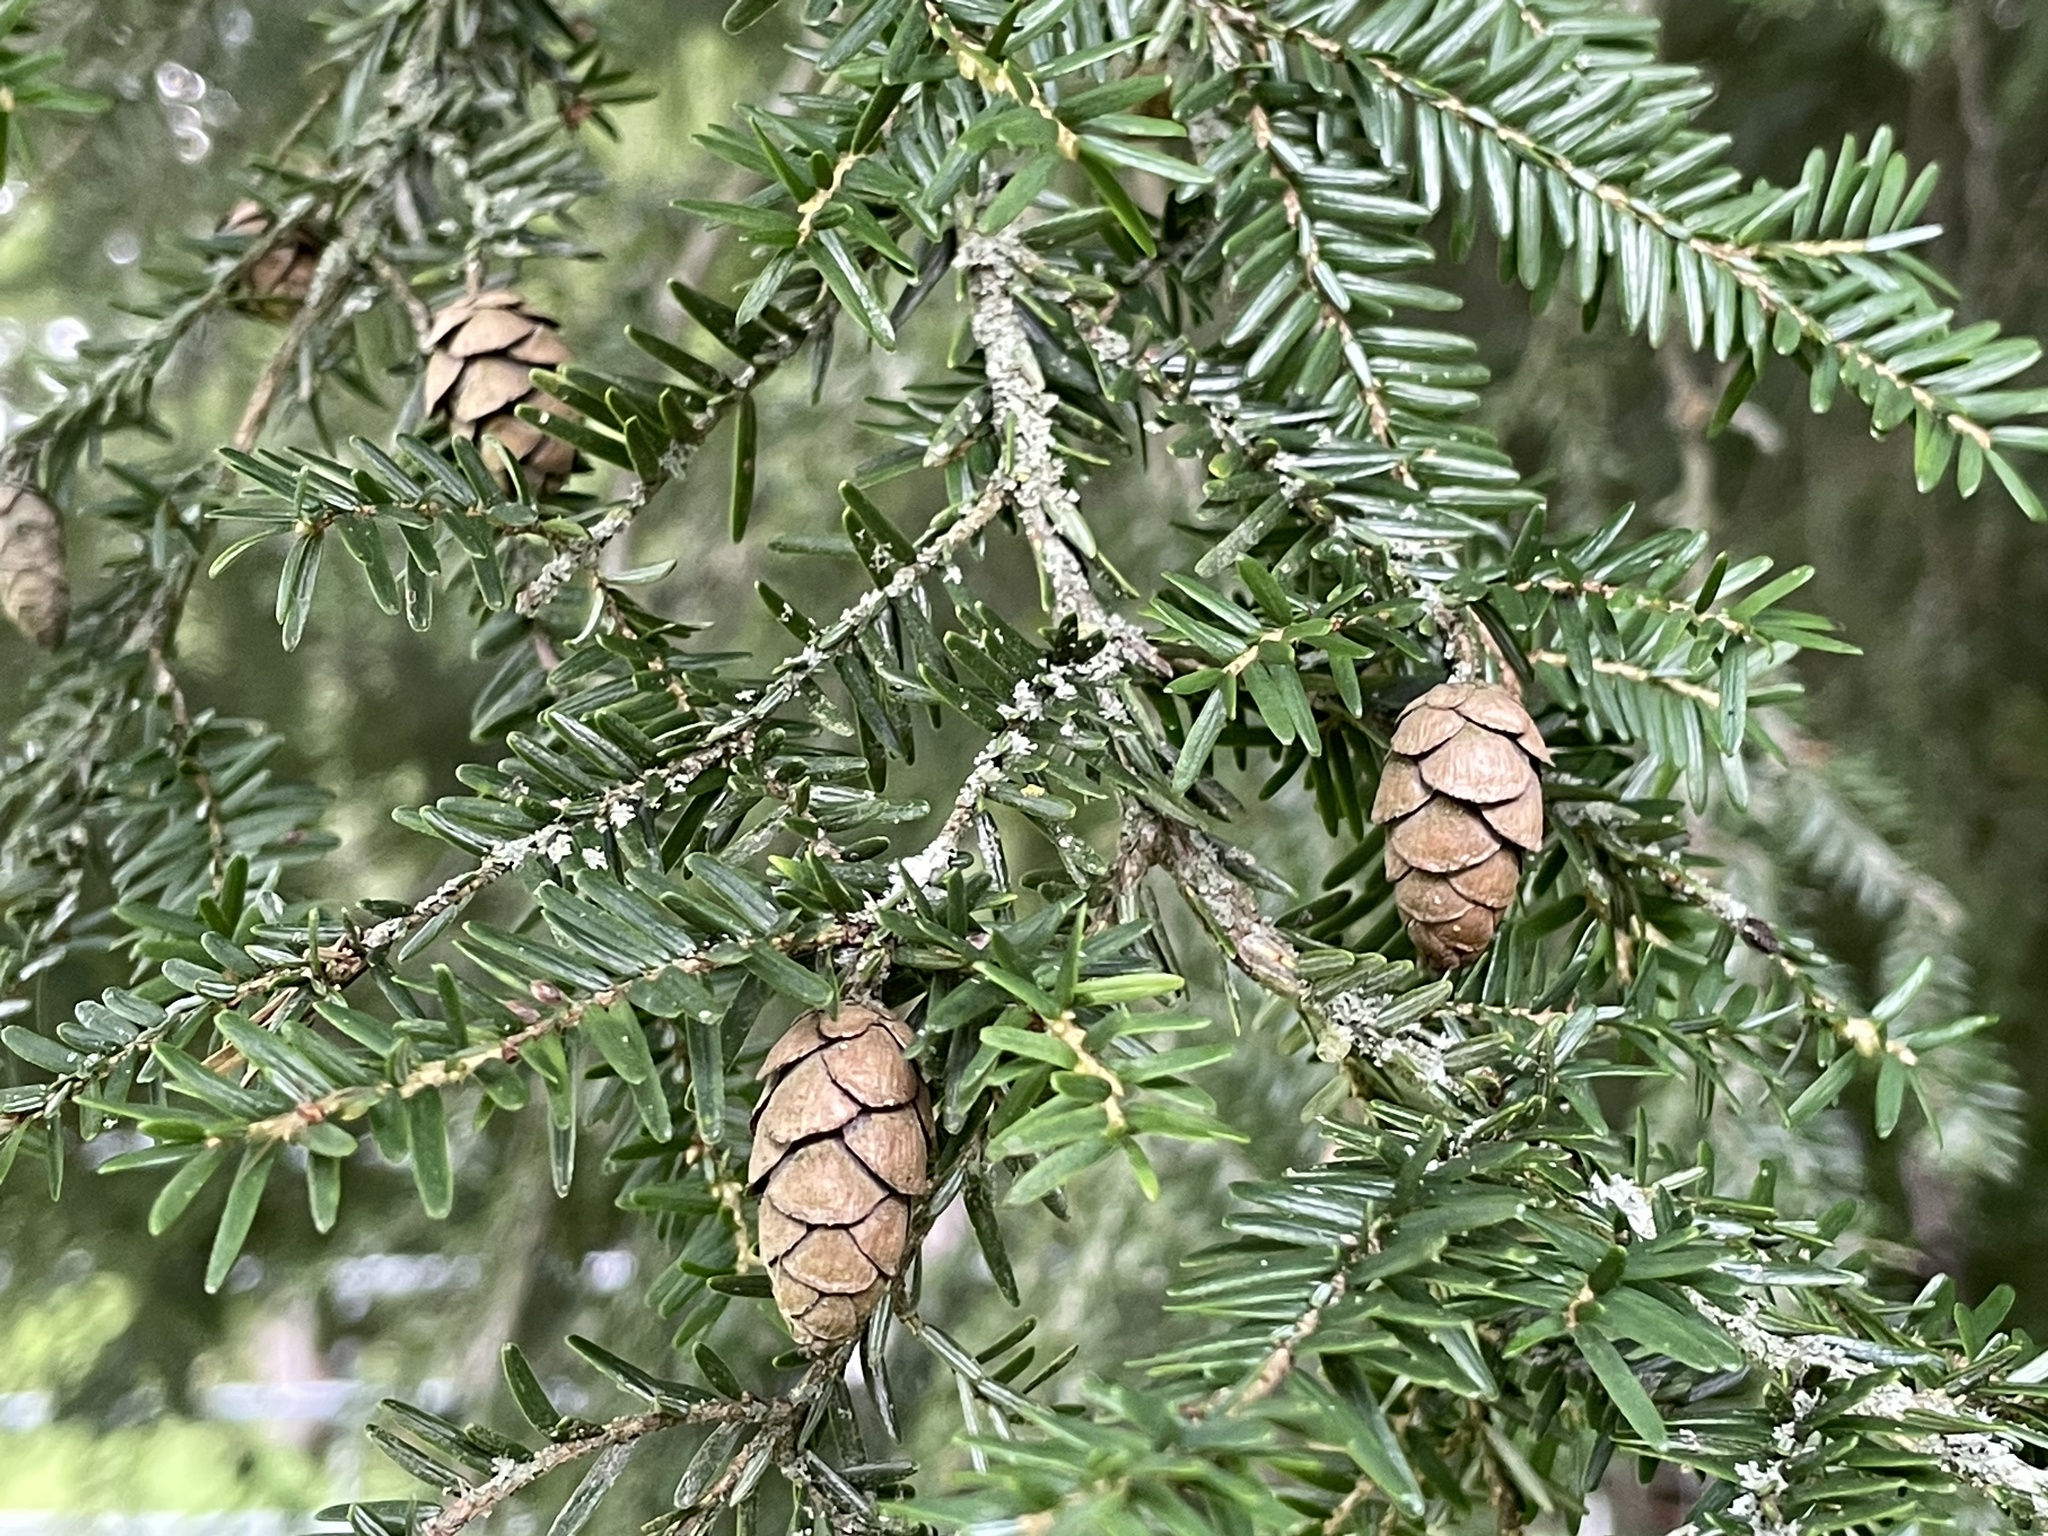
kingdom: Plantae
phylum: Tracheophyta
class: Pinopsida
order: Pinales
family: Pinaceae
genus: Tsuga
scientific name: Tsuga canadensis
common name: Eastern hemlock
